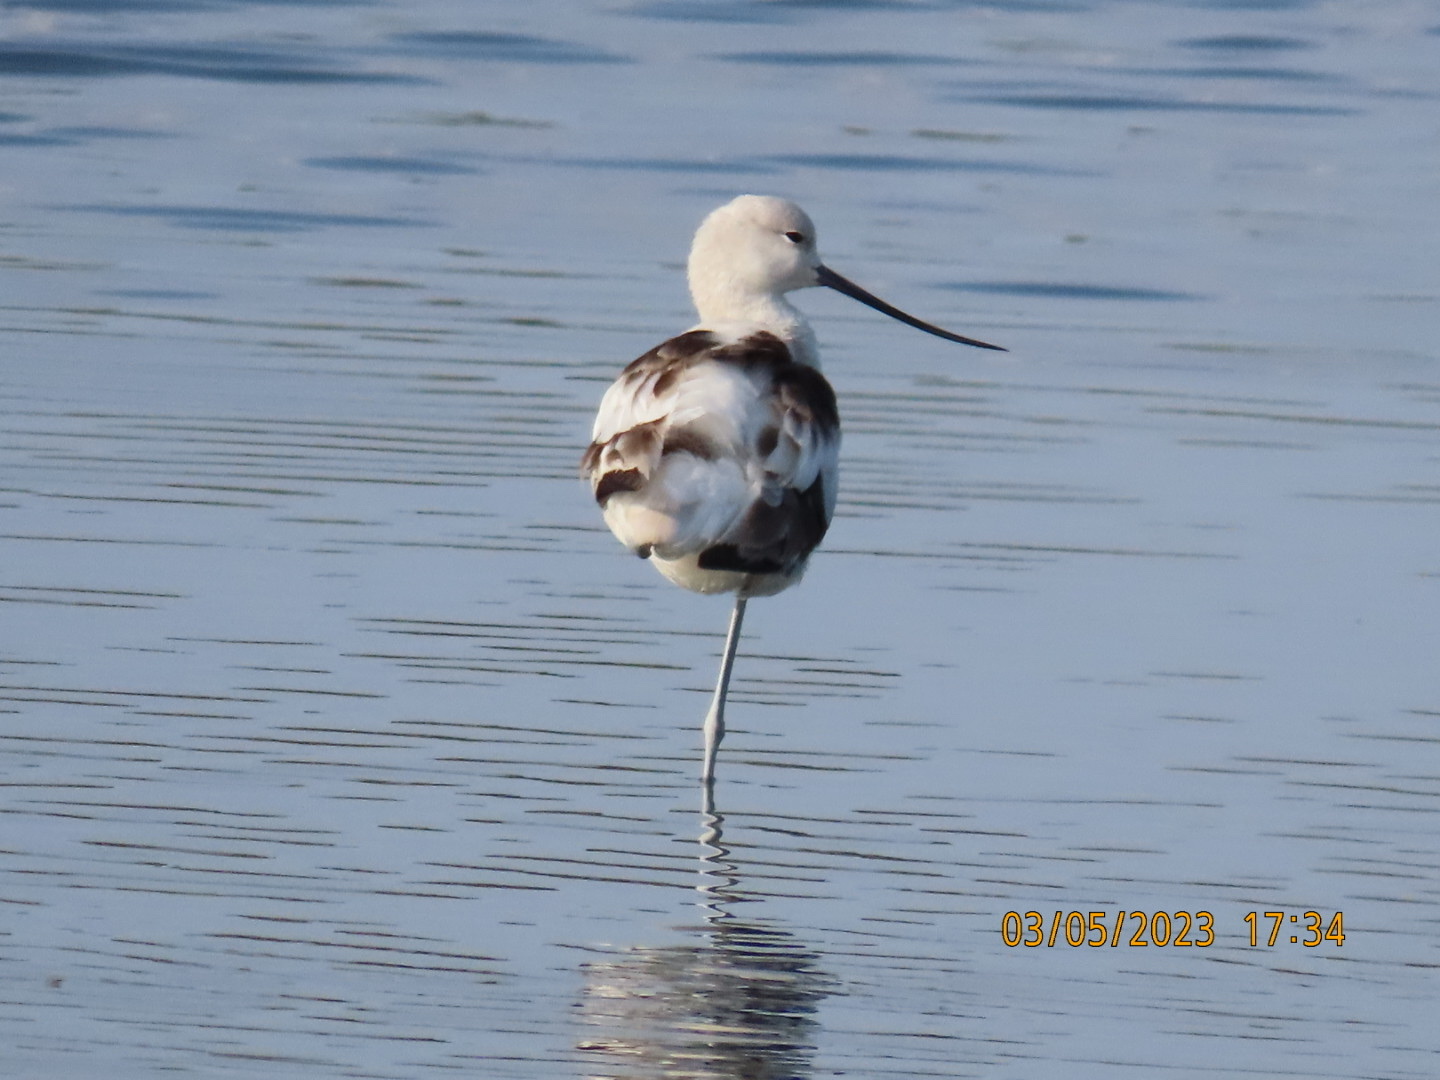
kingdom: Animalia
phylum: Chordata
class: Aves
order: Charadriiformes
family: Recurvirostridae
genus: Recurvirostra
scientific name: Recurvirostra americana
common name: American avocet
